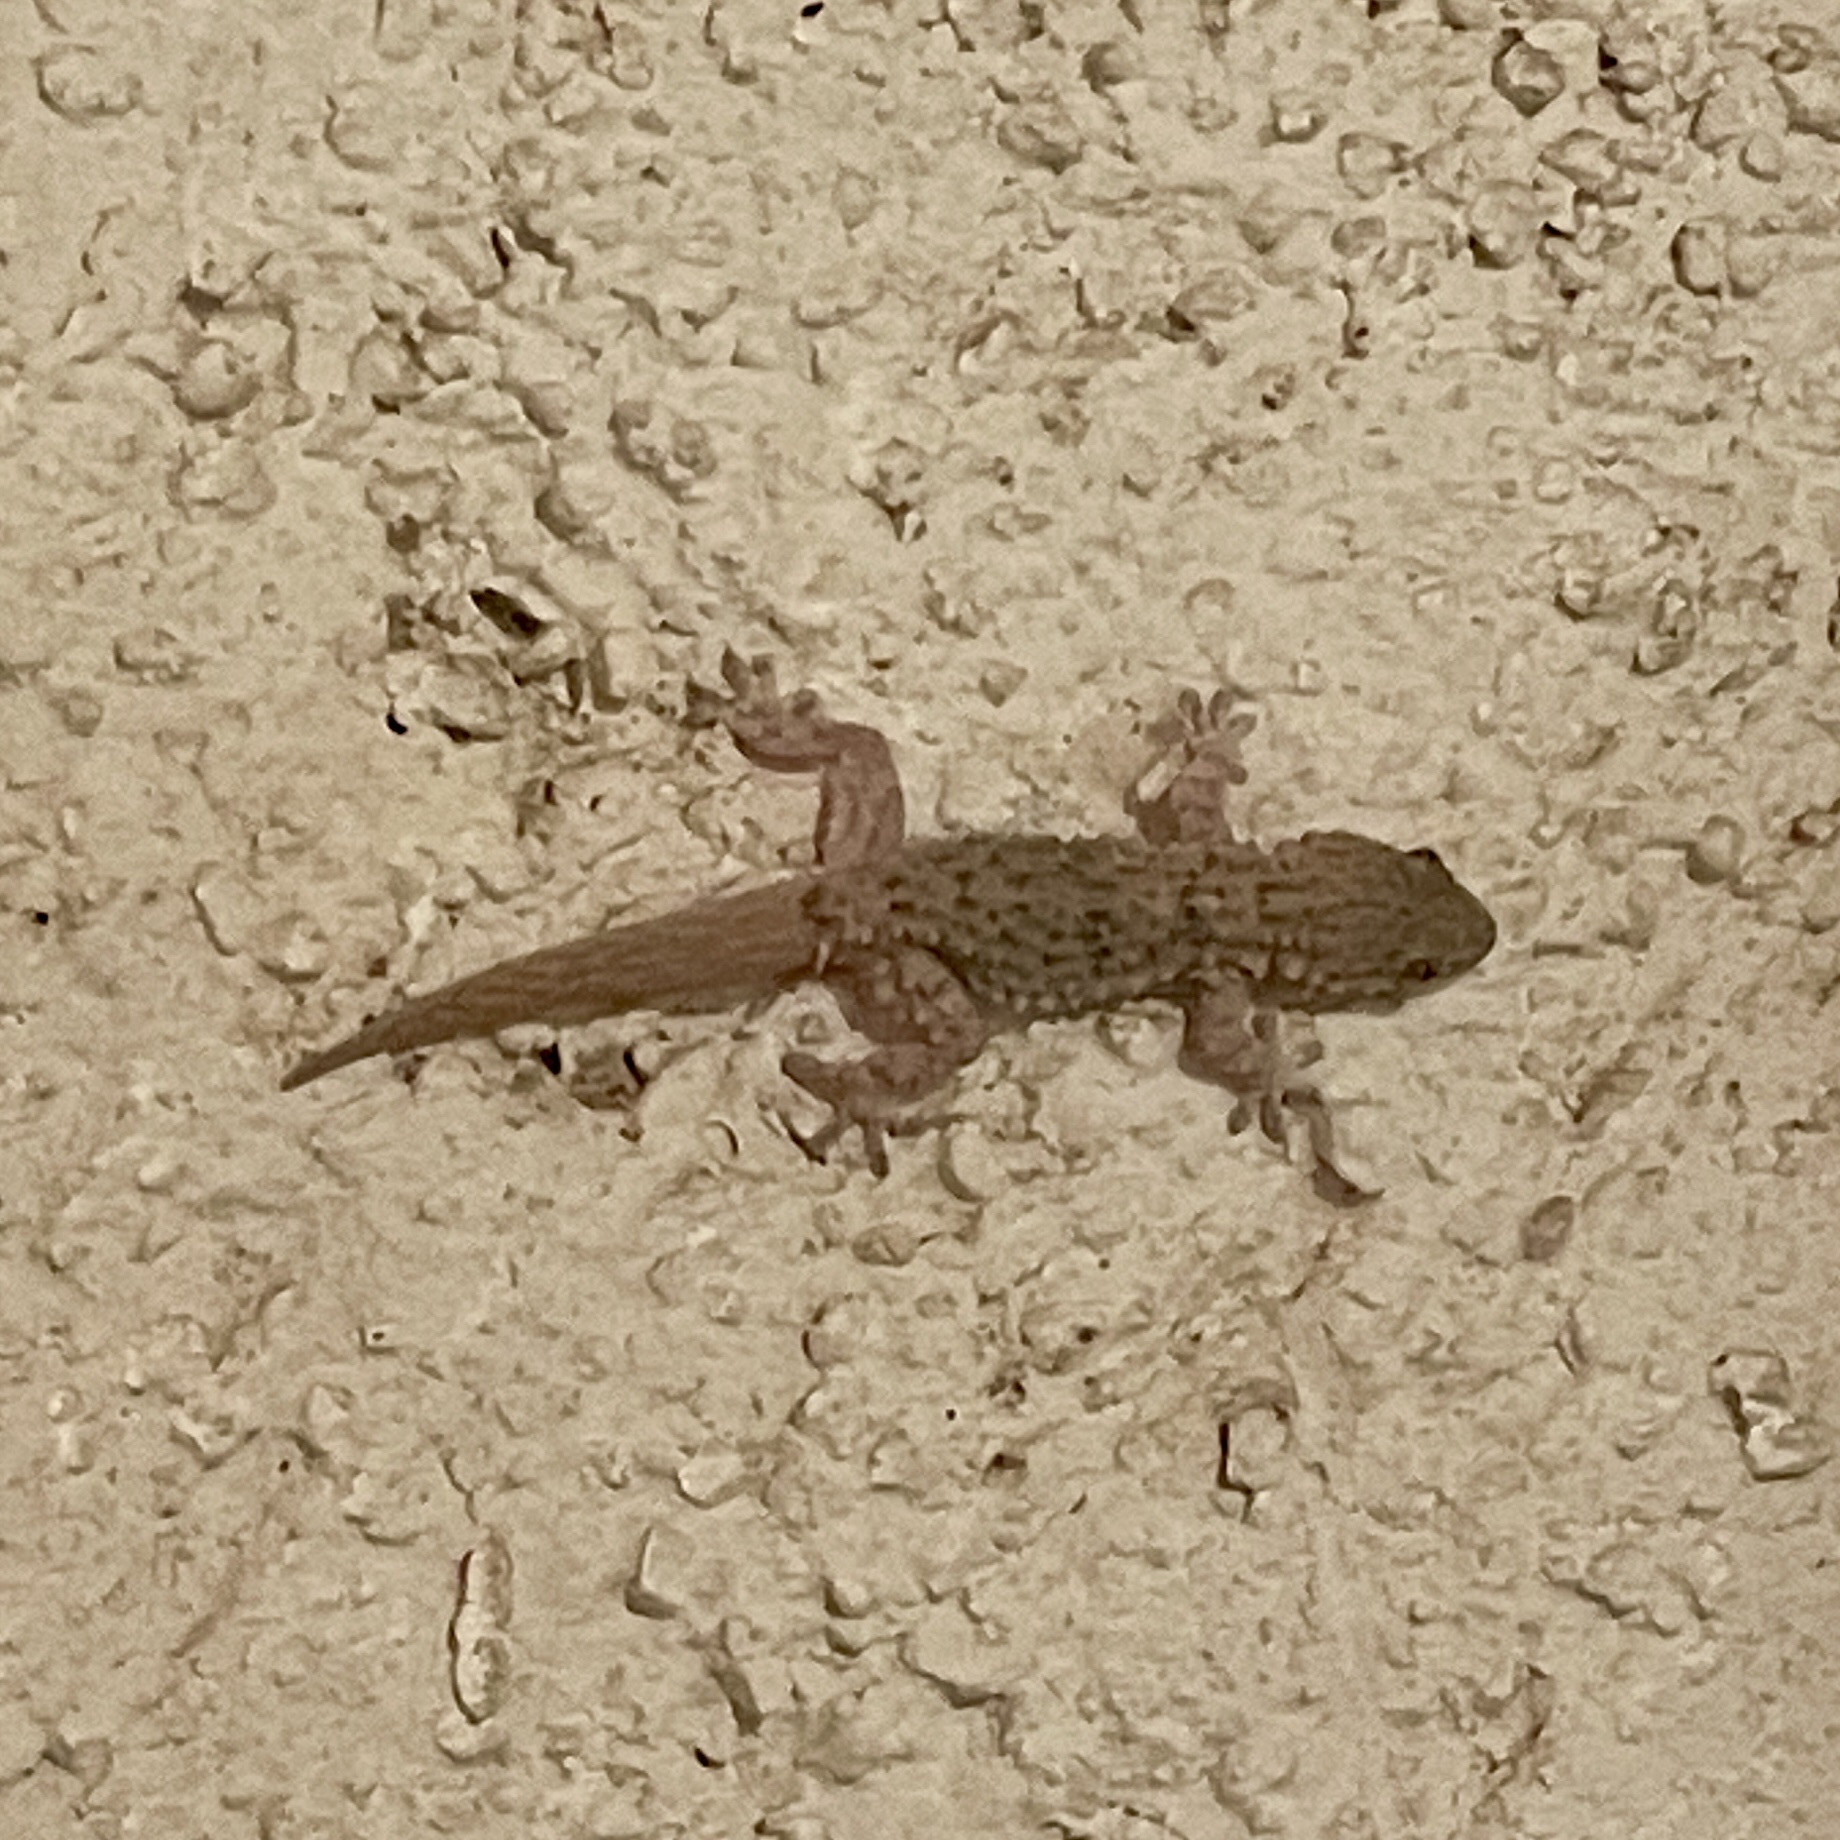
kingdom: Animalia
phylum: Chordata
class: Squamata
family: Phyllodactylidae
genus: Tarentola
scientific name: Tarentola mauritanica
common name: Moorish gecko
